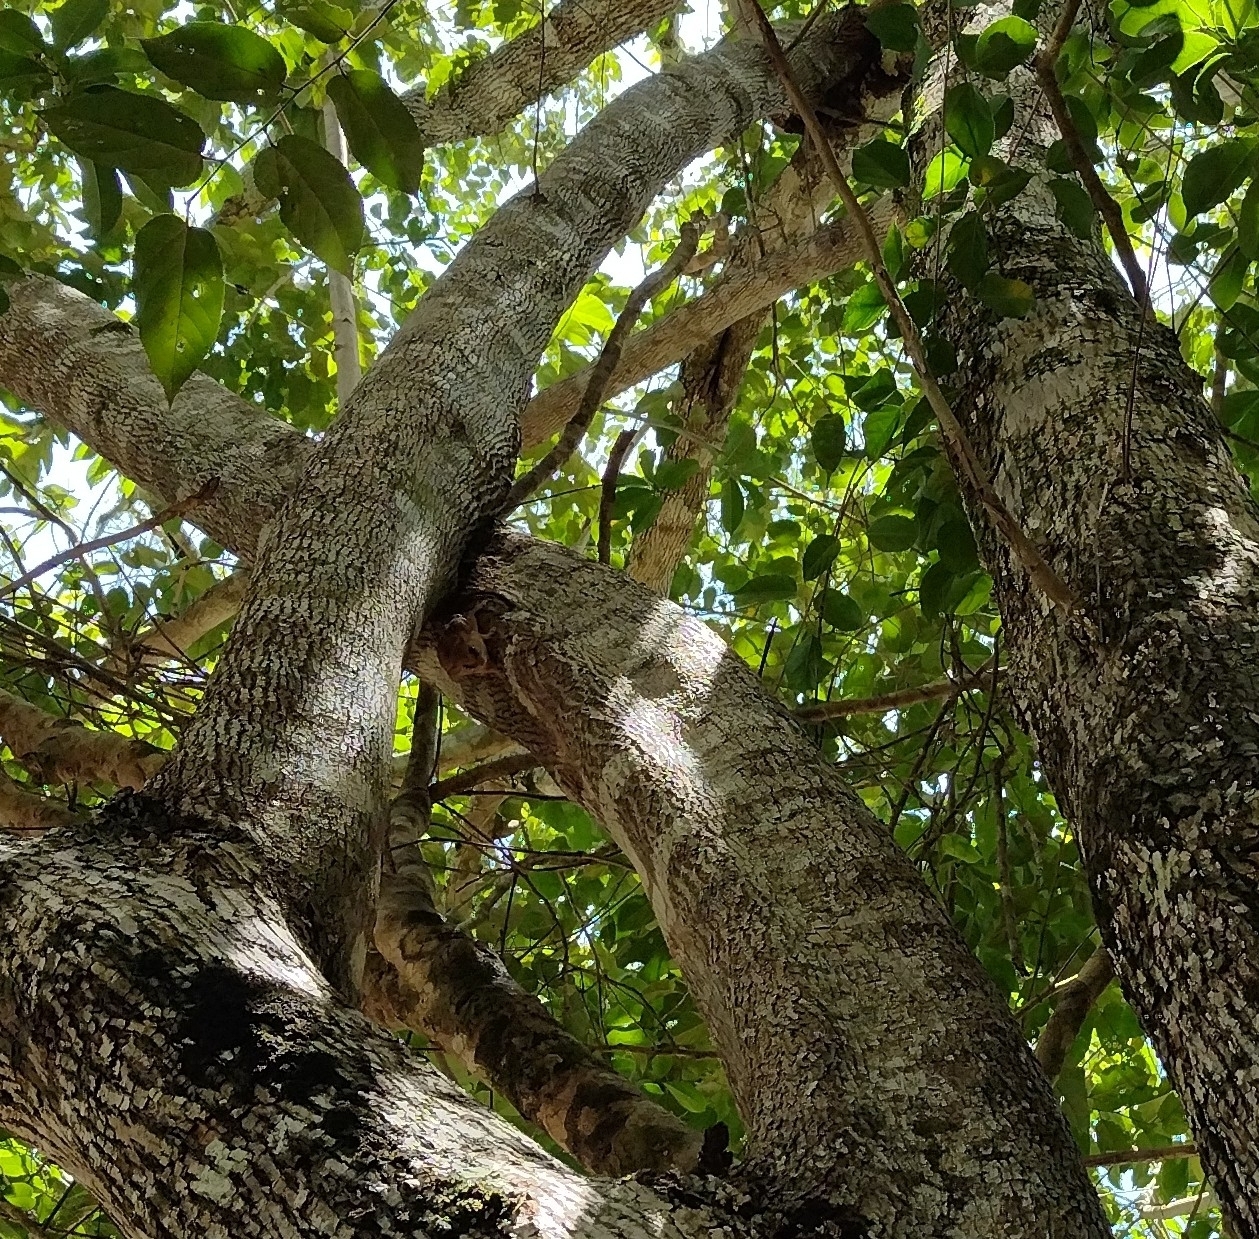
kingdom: Animalia
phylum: Chordata
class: Mammalia
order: Rodentia
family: Cricetidae
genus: Otonyctomys
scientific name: Otonyctomys hatti
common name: Hatt's vesper rat
